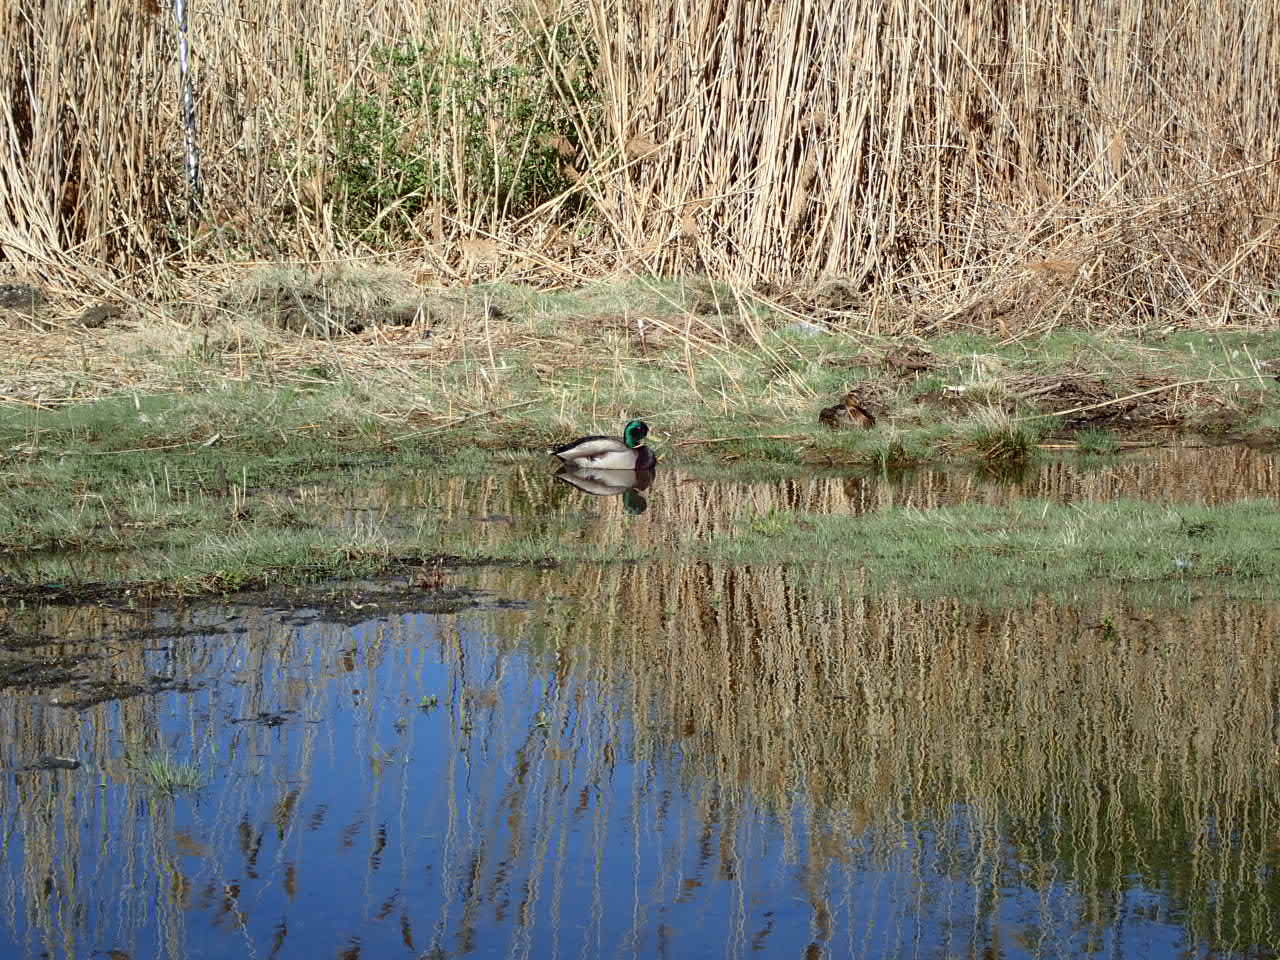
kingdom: Animalia
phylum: Chordata
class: Aves
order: Anseriformes
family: Anatidae
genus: Anas
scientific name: Anas platyrhynchos
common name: Mallard
